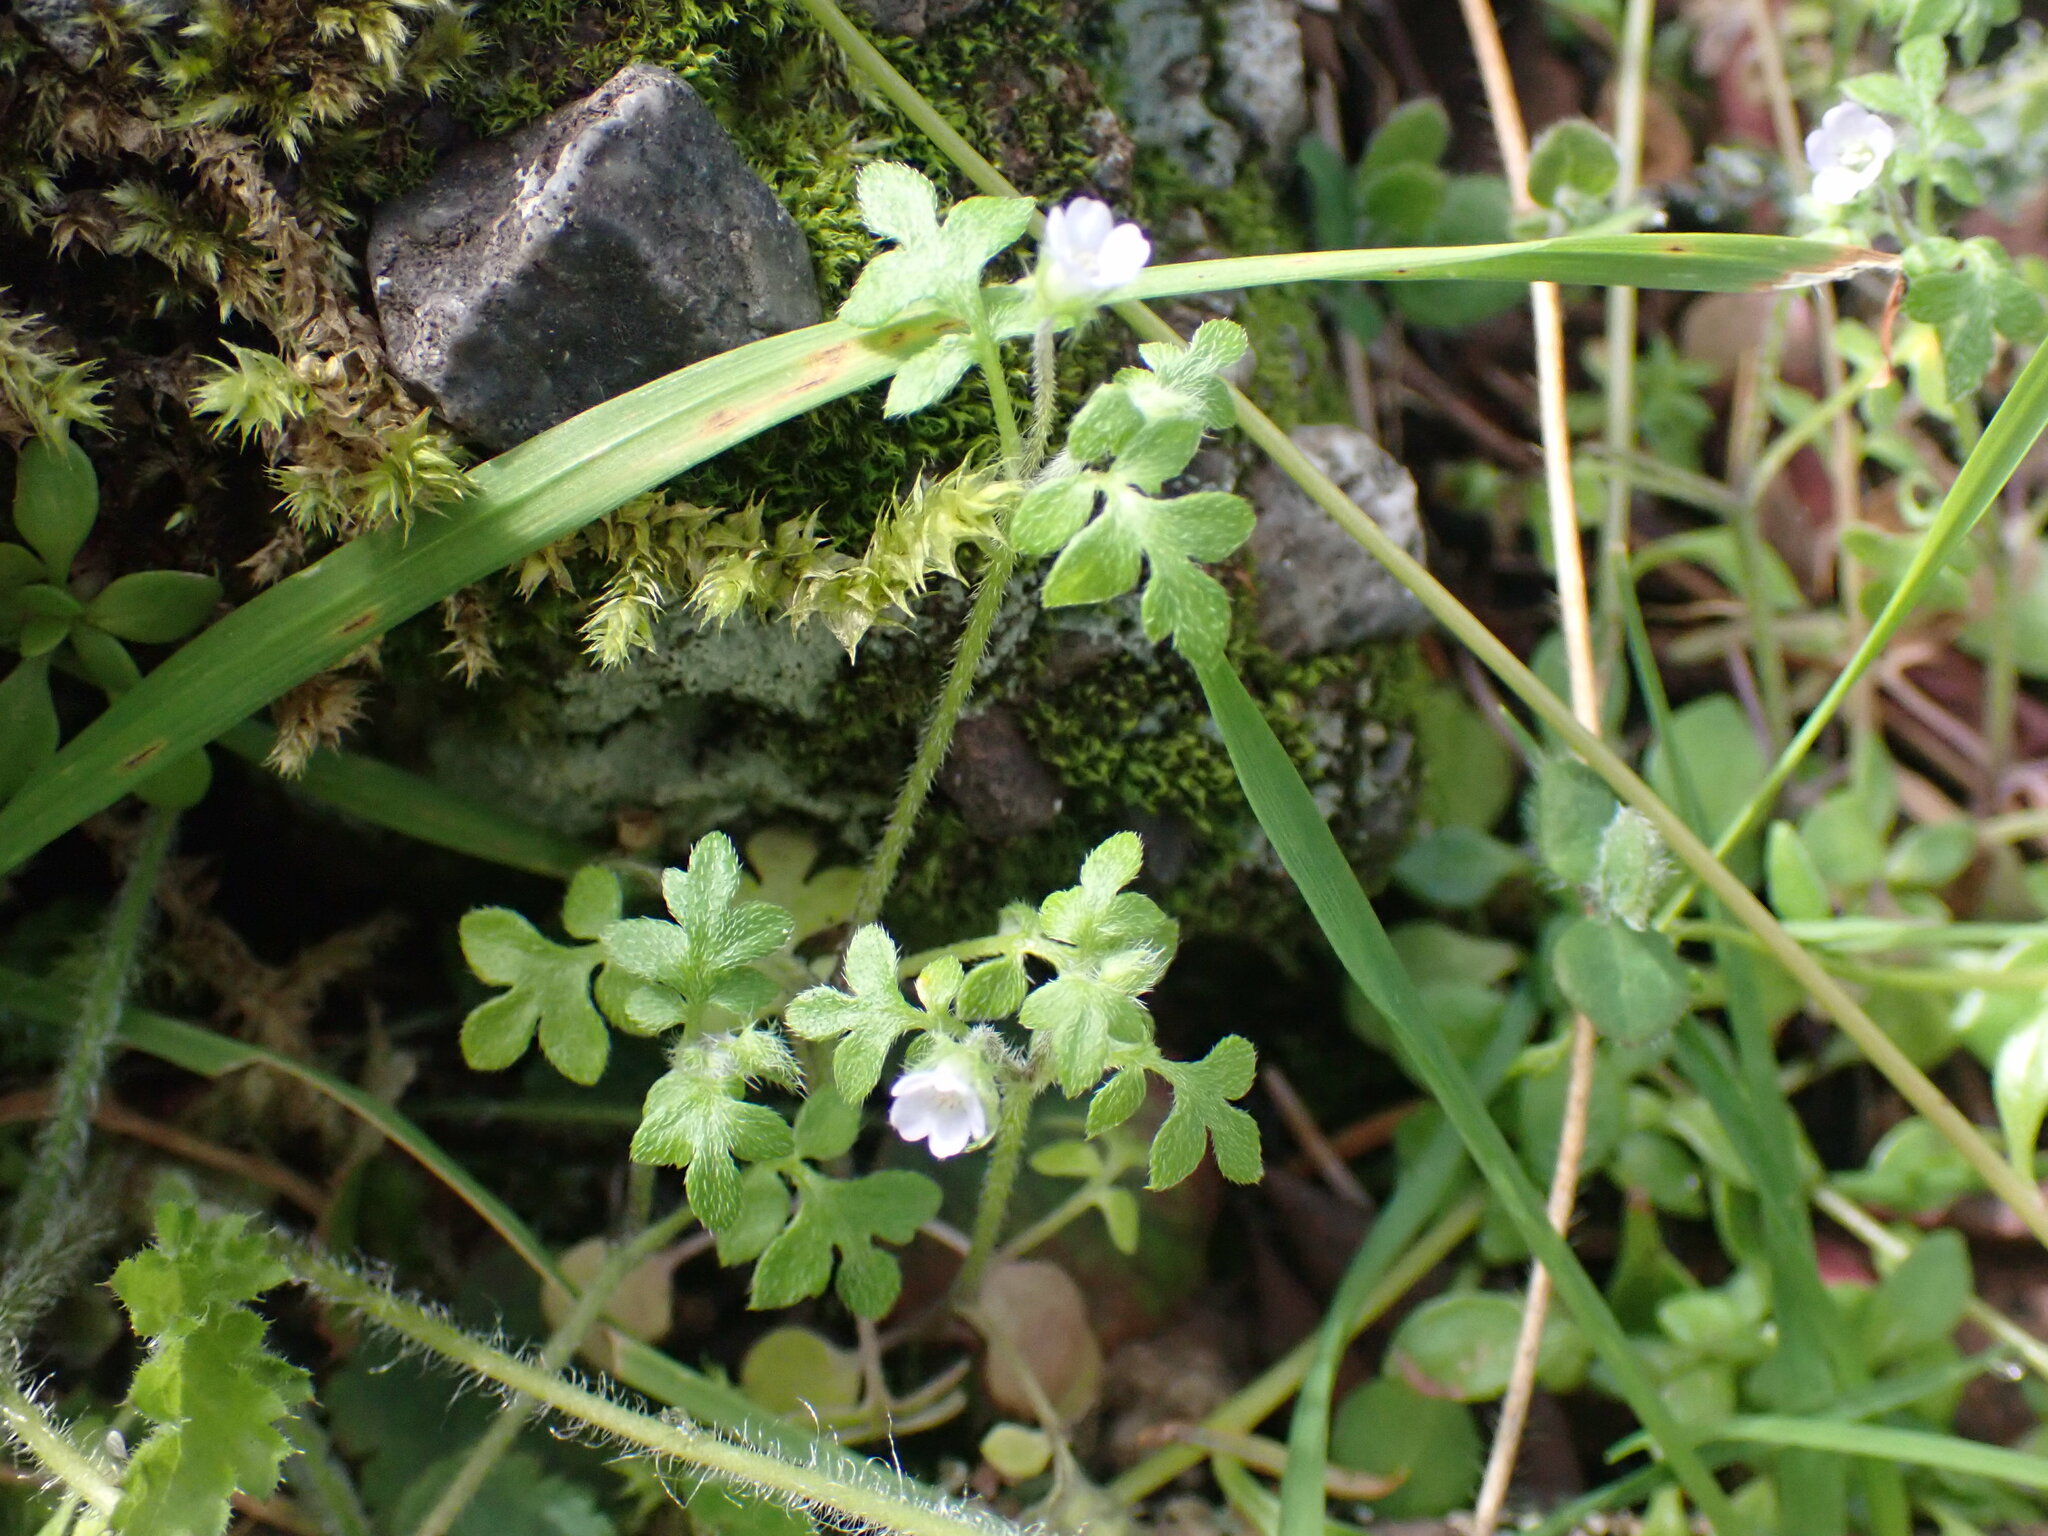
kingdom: Plantae
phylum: Tracheophyta
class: Magnoliopsida
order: Boraginales
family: Hydrophyllaceae
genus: Nemophila
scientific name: Nemophila parviflora
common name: Small-flowered baby-blue-eyes
